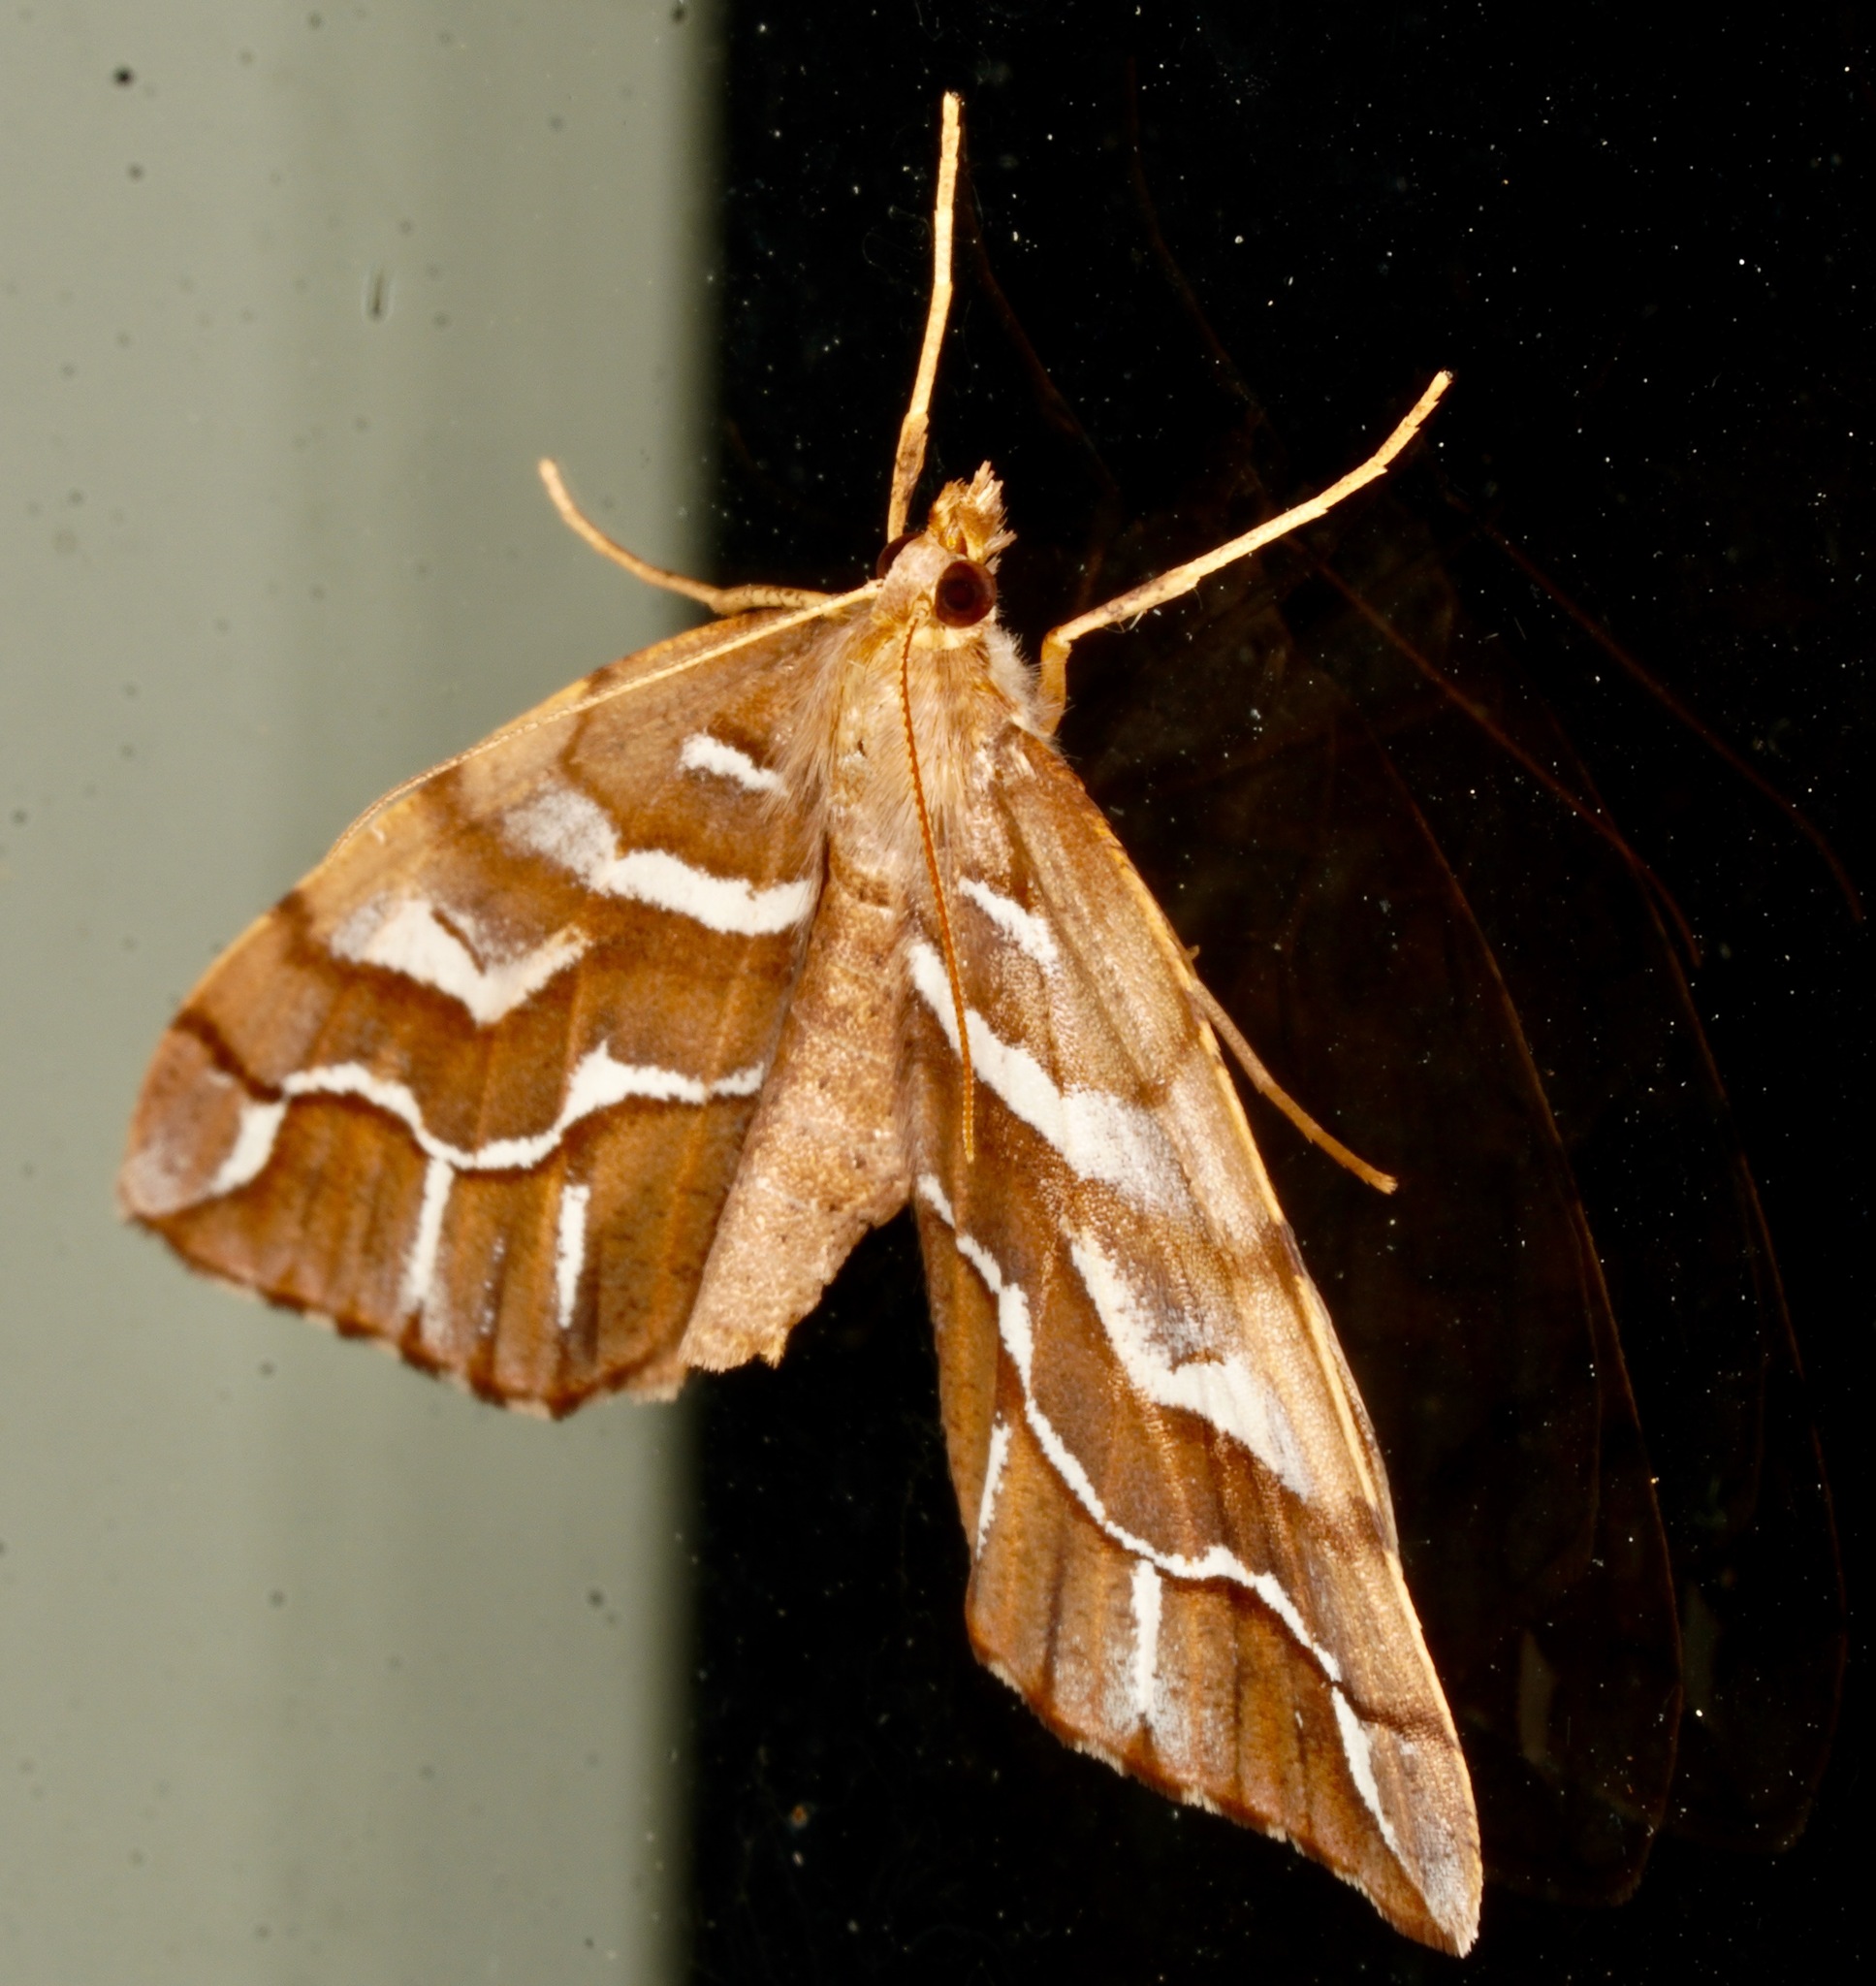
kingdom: Animalia
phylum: Arthropoda
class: Insecta
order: Lepidoptera
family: Geometridae
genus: Chalastra
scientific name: Chalastra aristarcha
